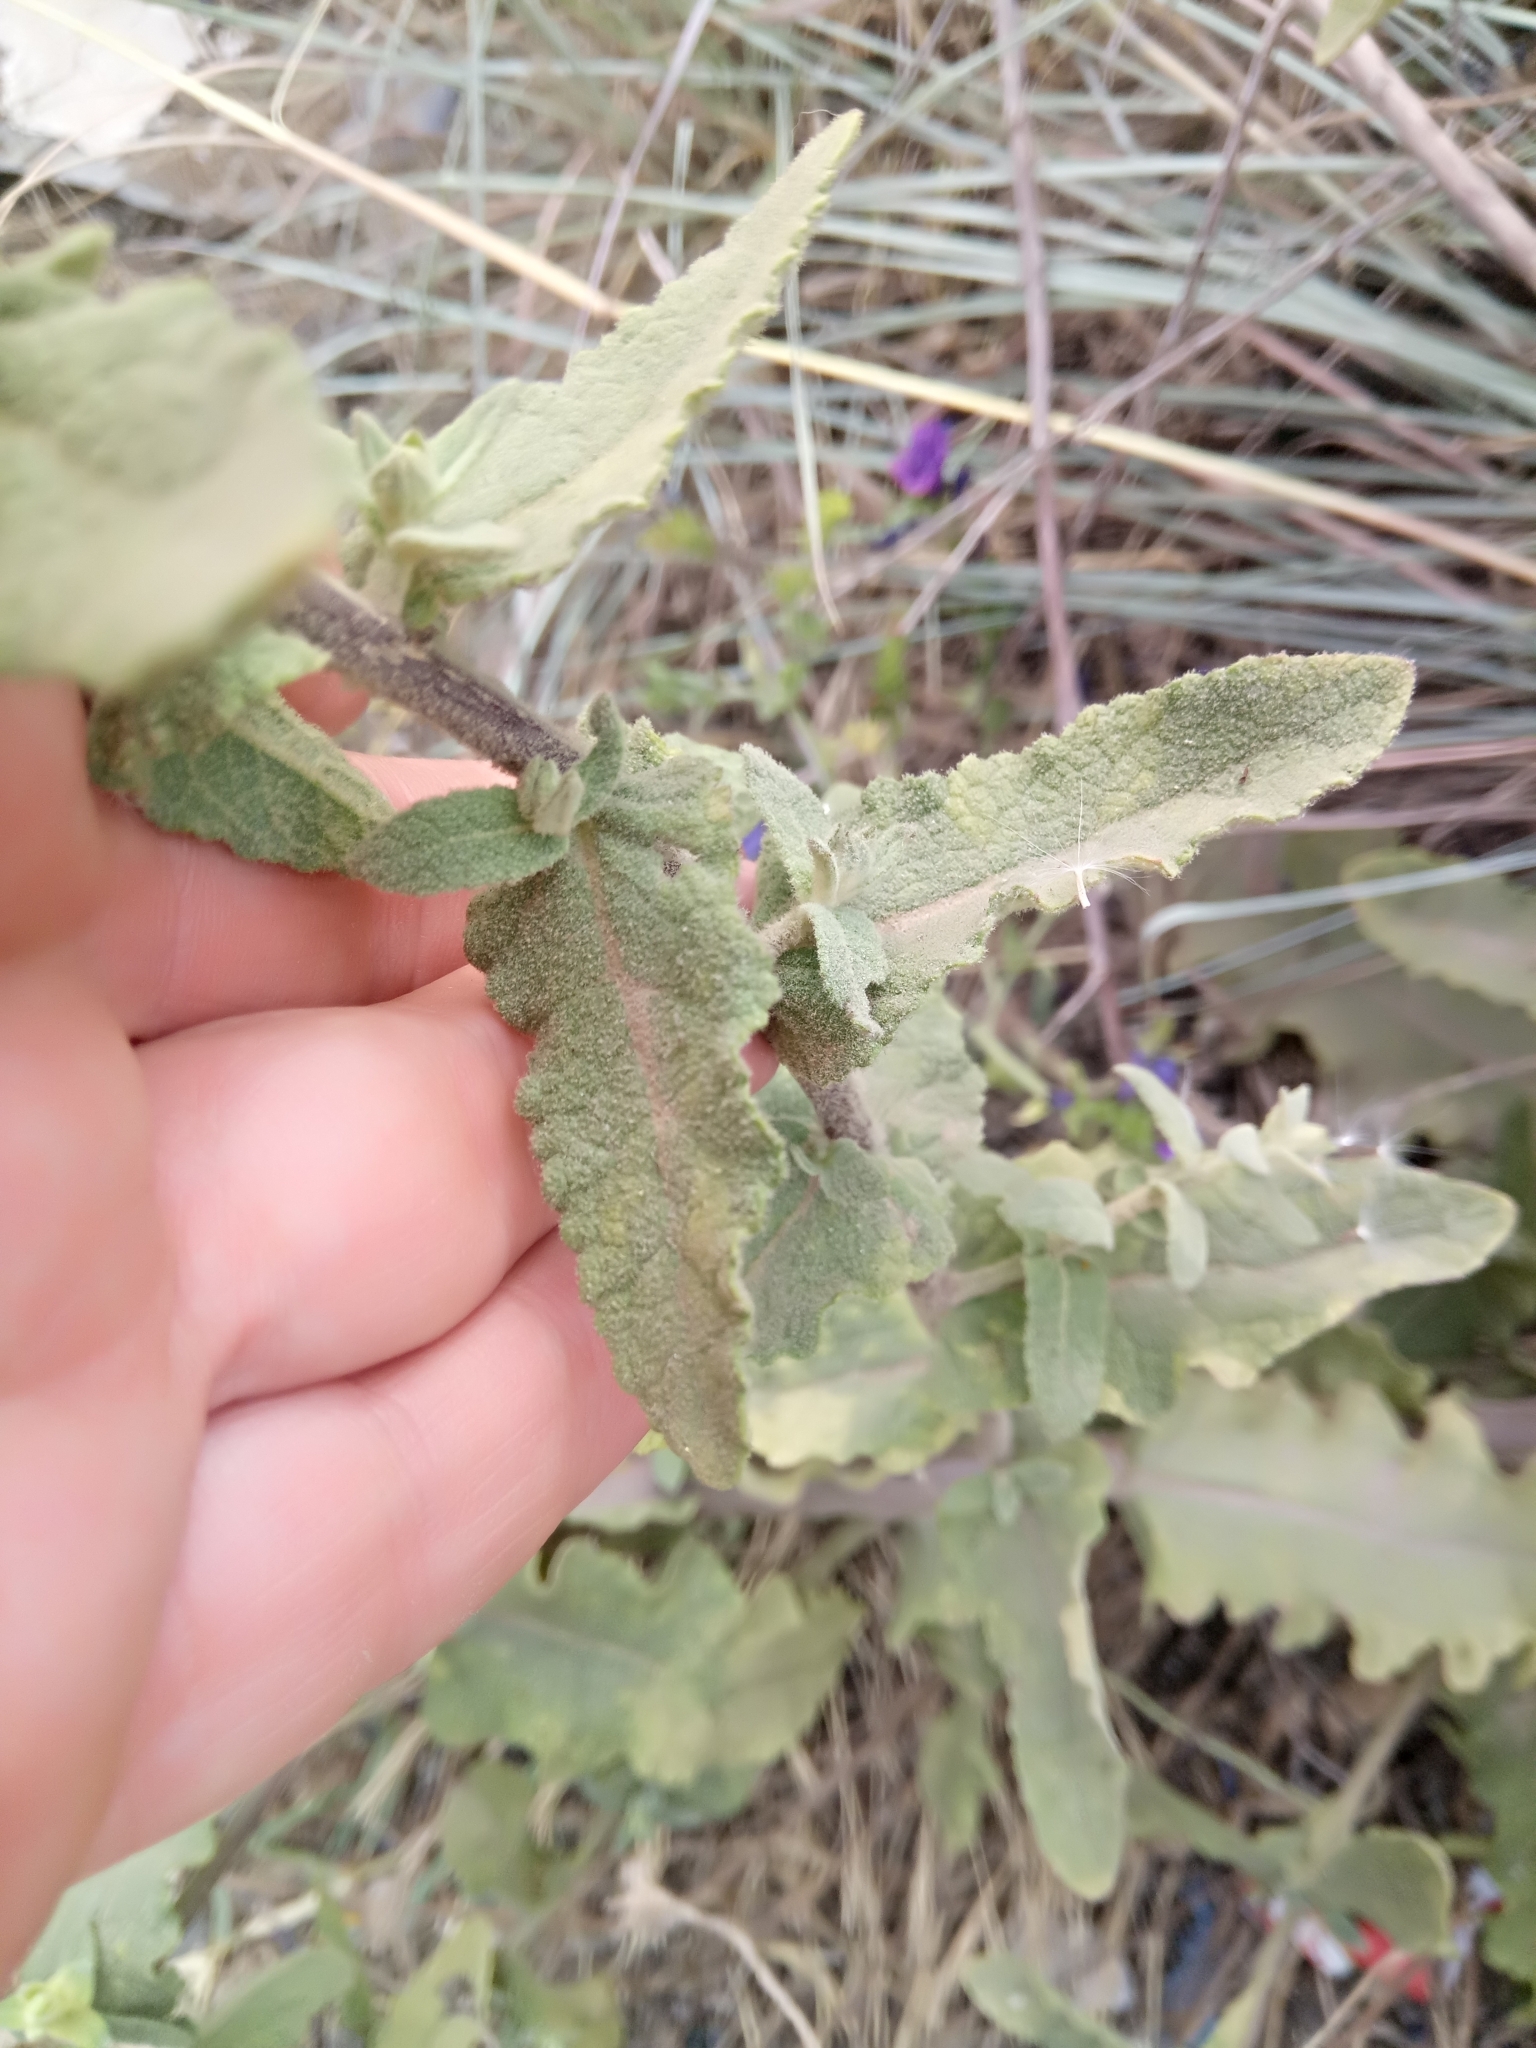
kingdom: Plantae
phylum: Tracheophyta
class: Magnoliopsida
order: Lamiales
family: Scrophulariaceae
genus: Verbascum
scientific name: Verbascum sinuatum
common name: Wavyleaf mullein
